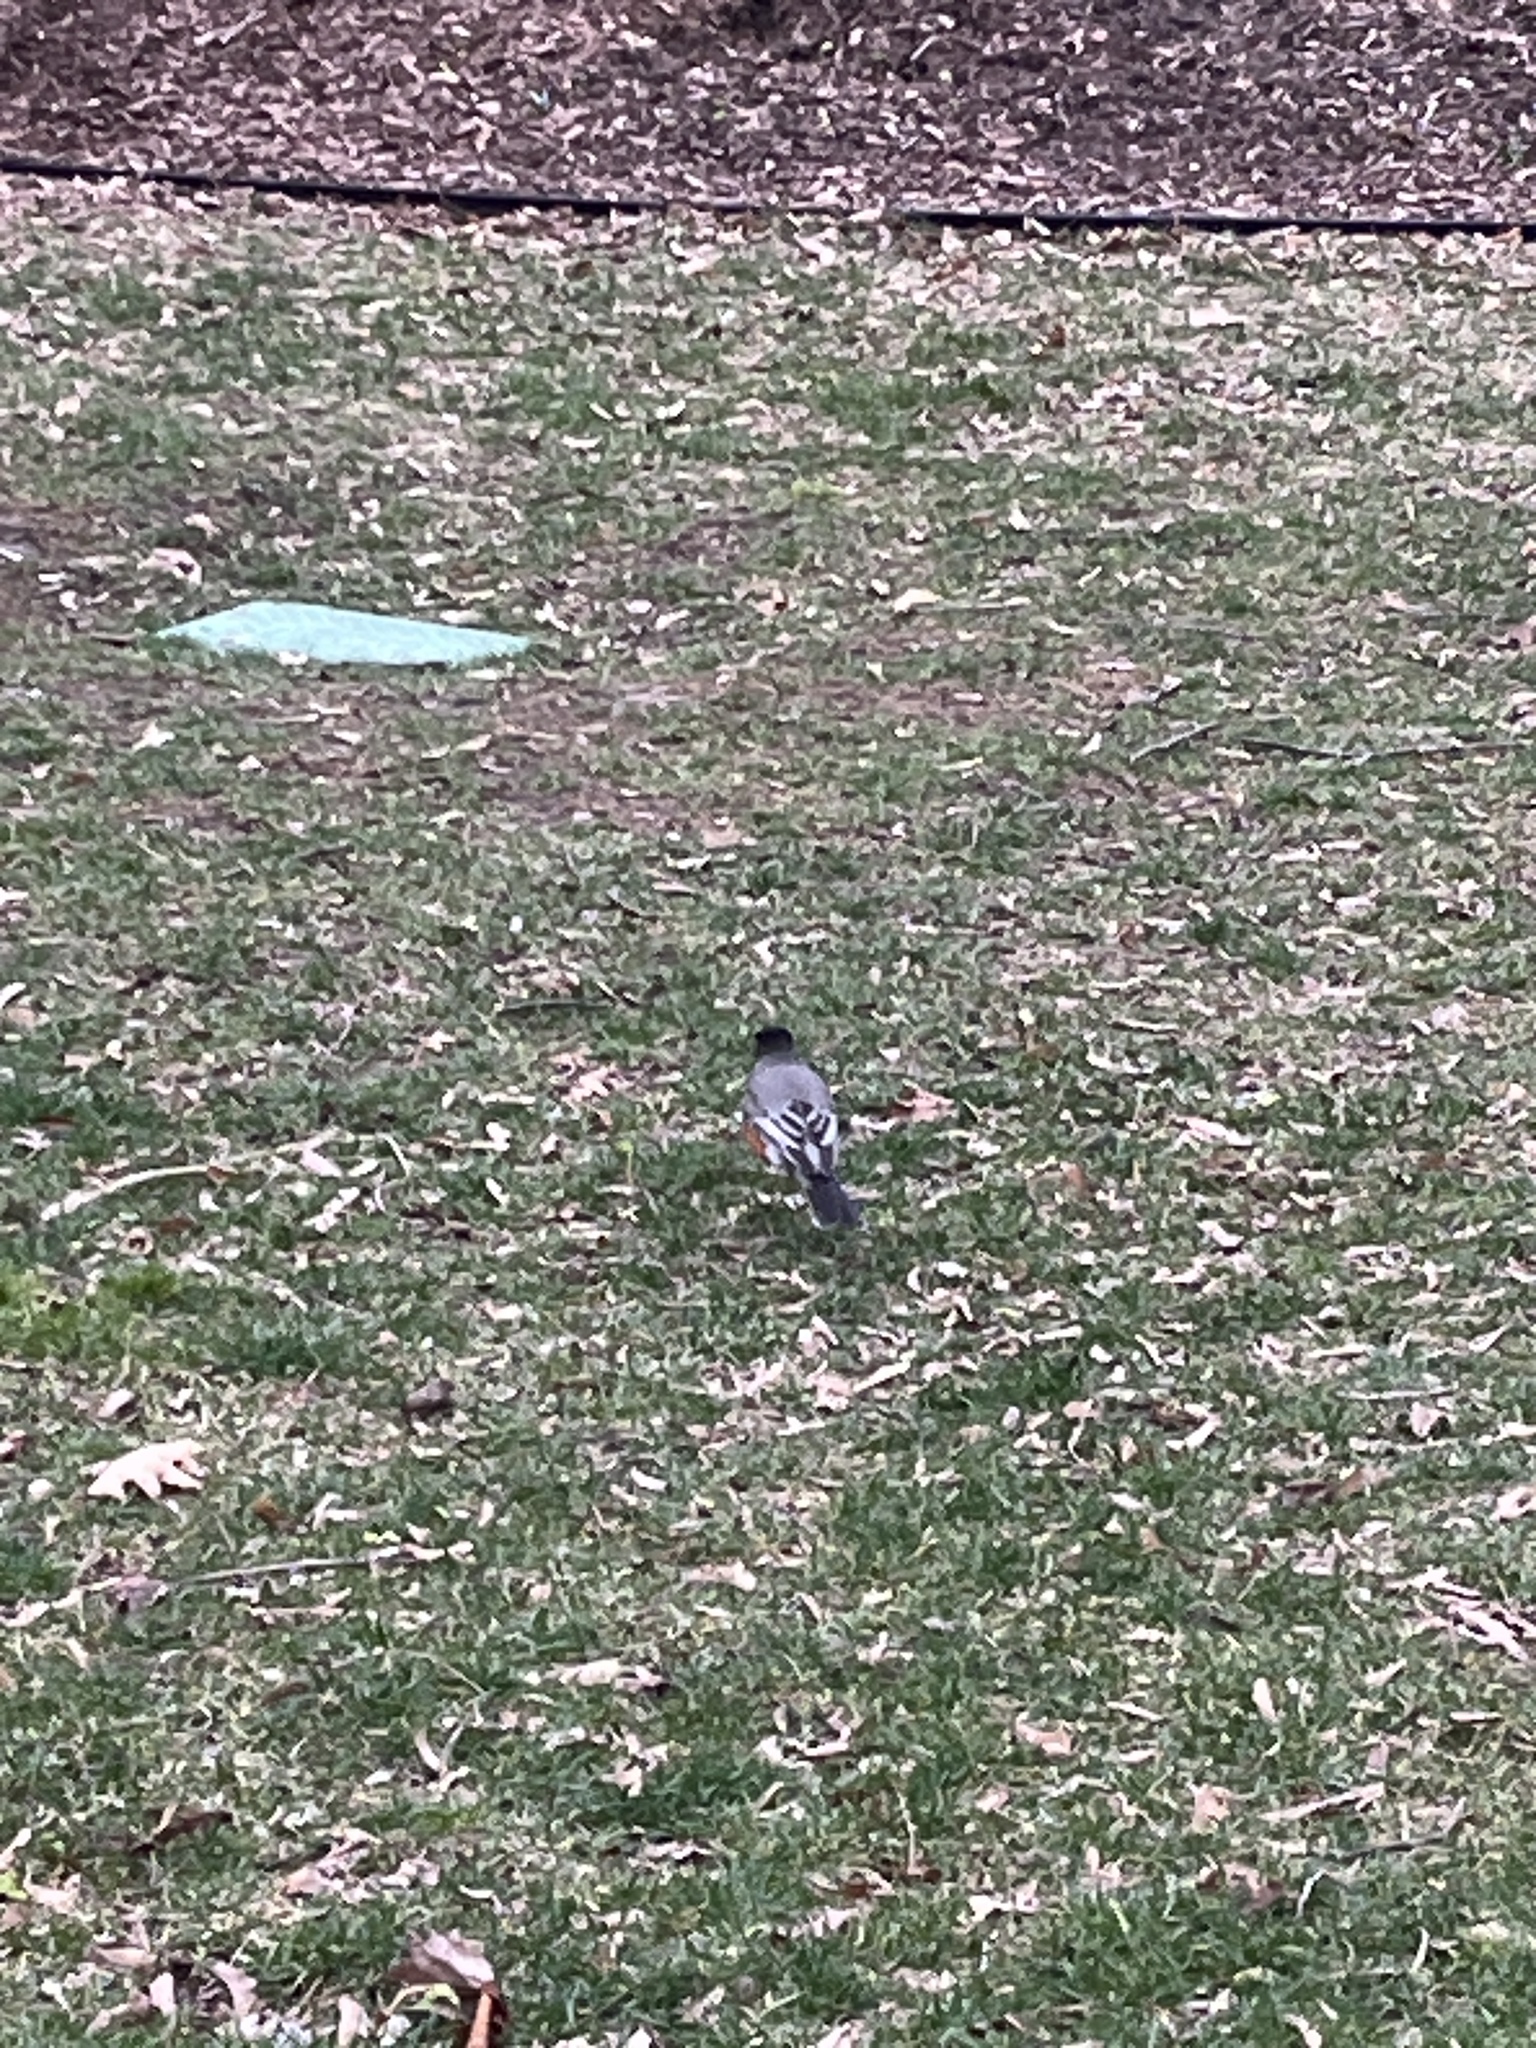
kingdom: Animalia
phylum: Chordata
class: Aves
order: Passeriformes
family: Turdidae
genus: Turdus
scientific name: Turdus migratorius
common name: American robin
